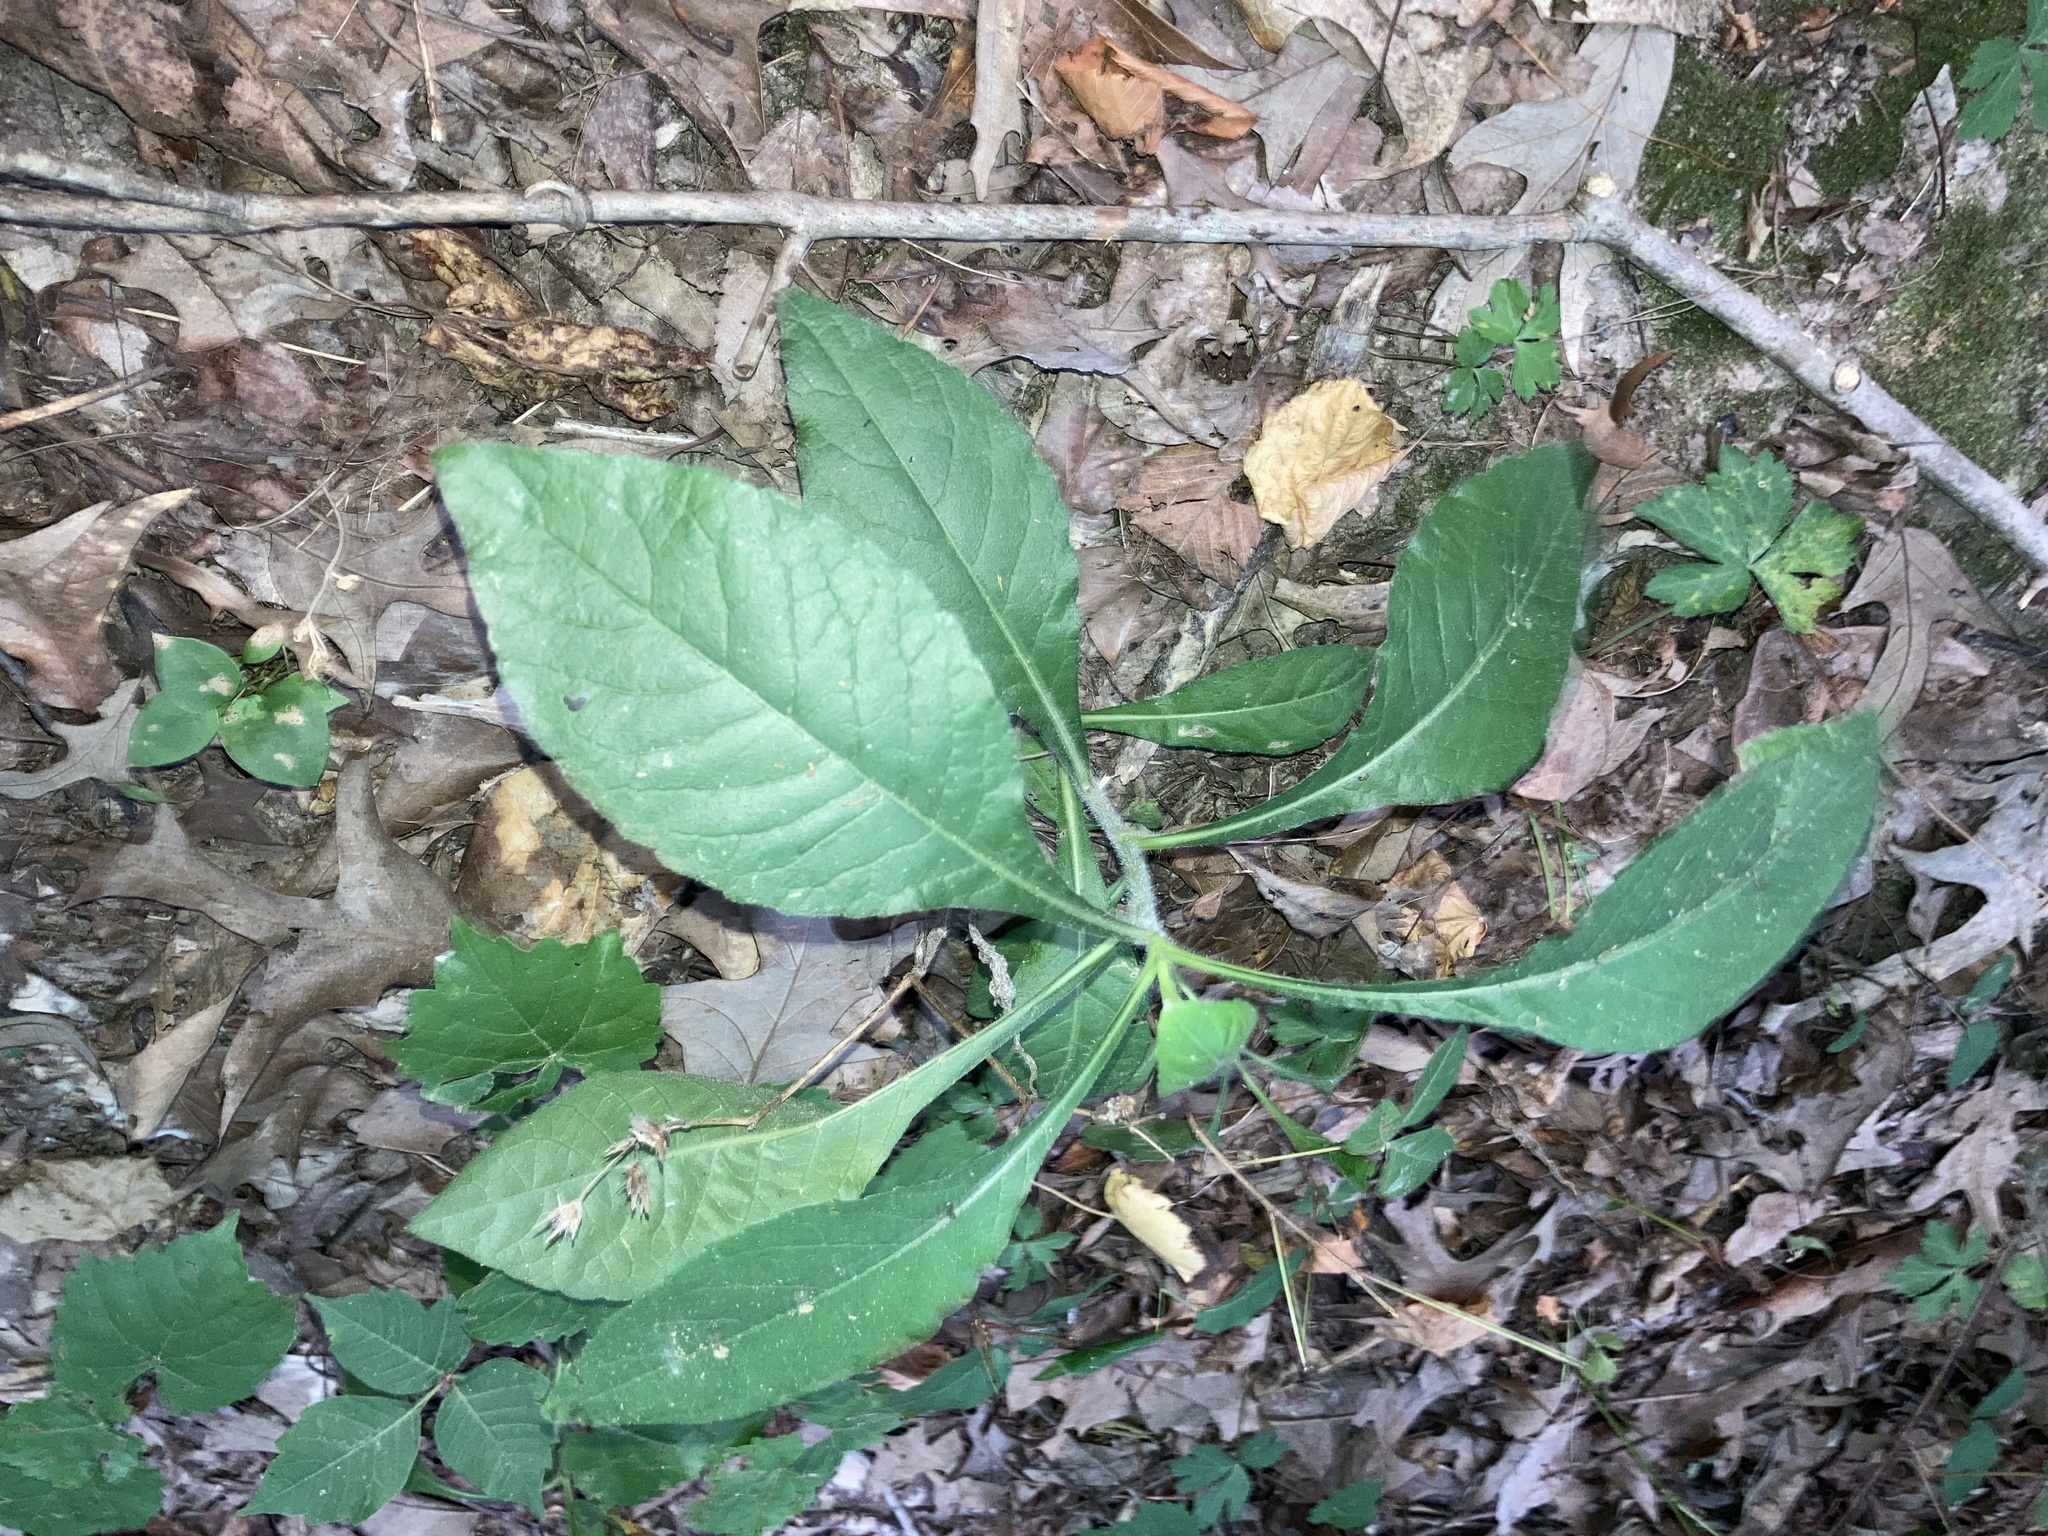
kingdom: Plantae
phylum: Tracheophyta
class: Magnoliopsida
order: Asterales
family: Asteraceae
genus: Elephantopus
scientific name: Elephantopus carolinianus
